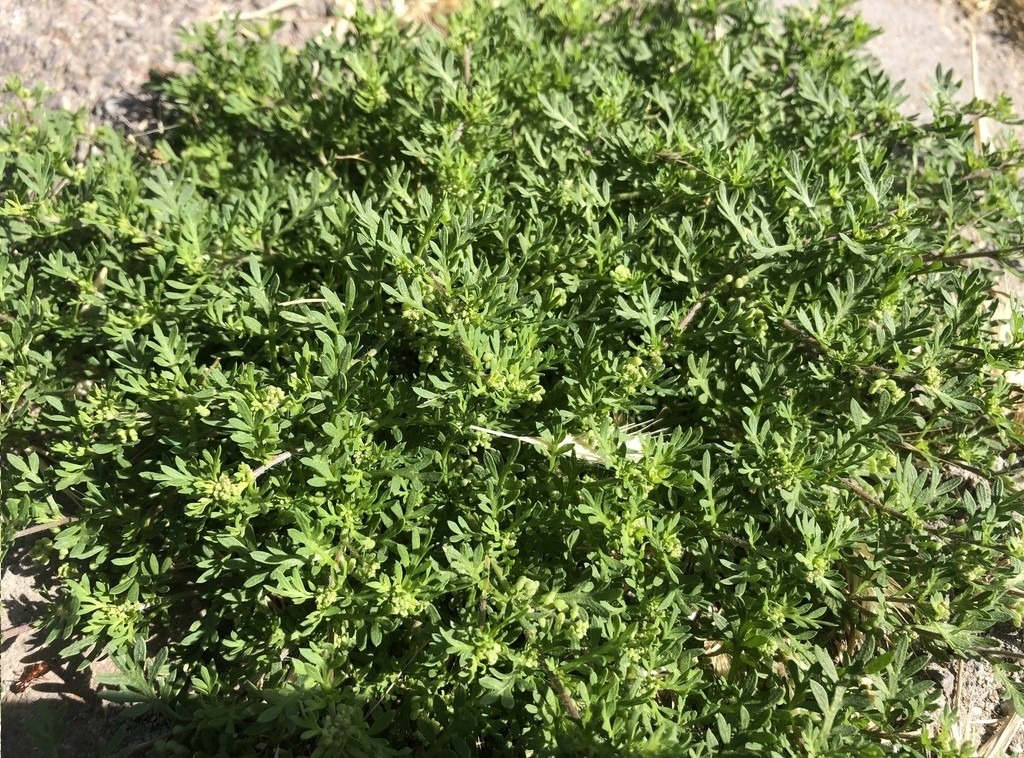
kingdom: Plantae
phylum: Tracheophyta
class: Magnoliopsida
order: Brassicales
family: Brassicaceae
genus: Lepidium
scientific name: Lepidium didymum
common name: Lesser swinecress
